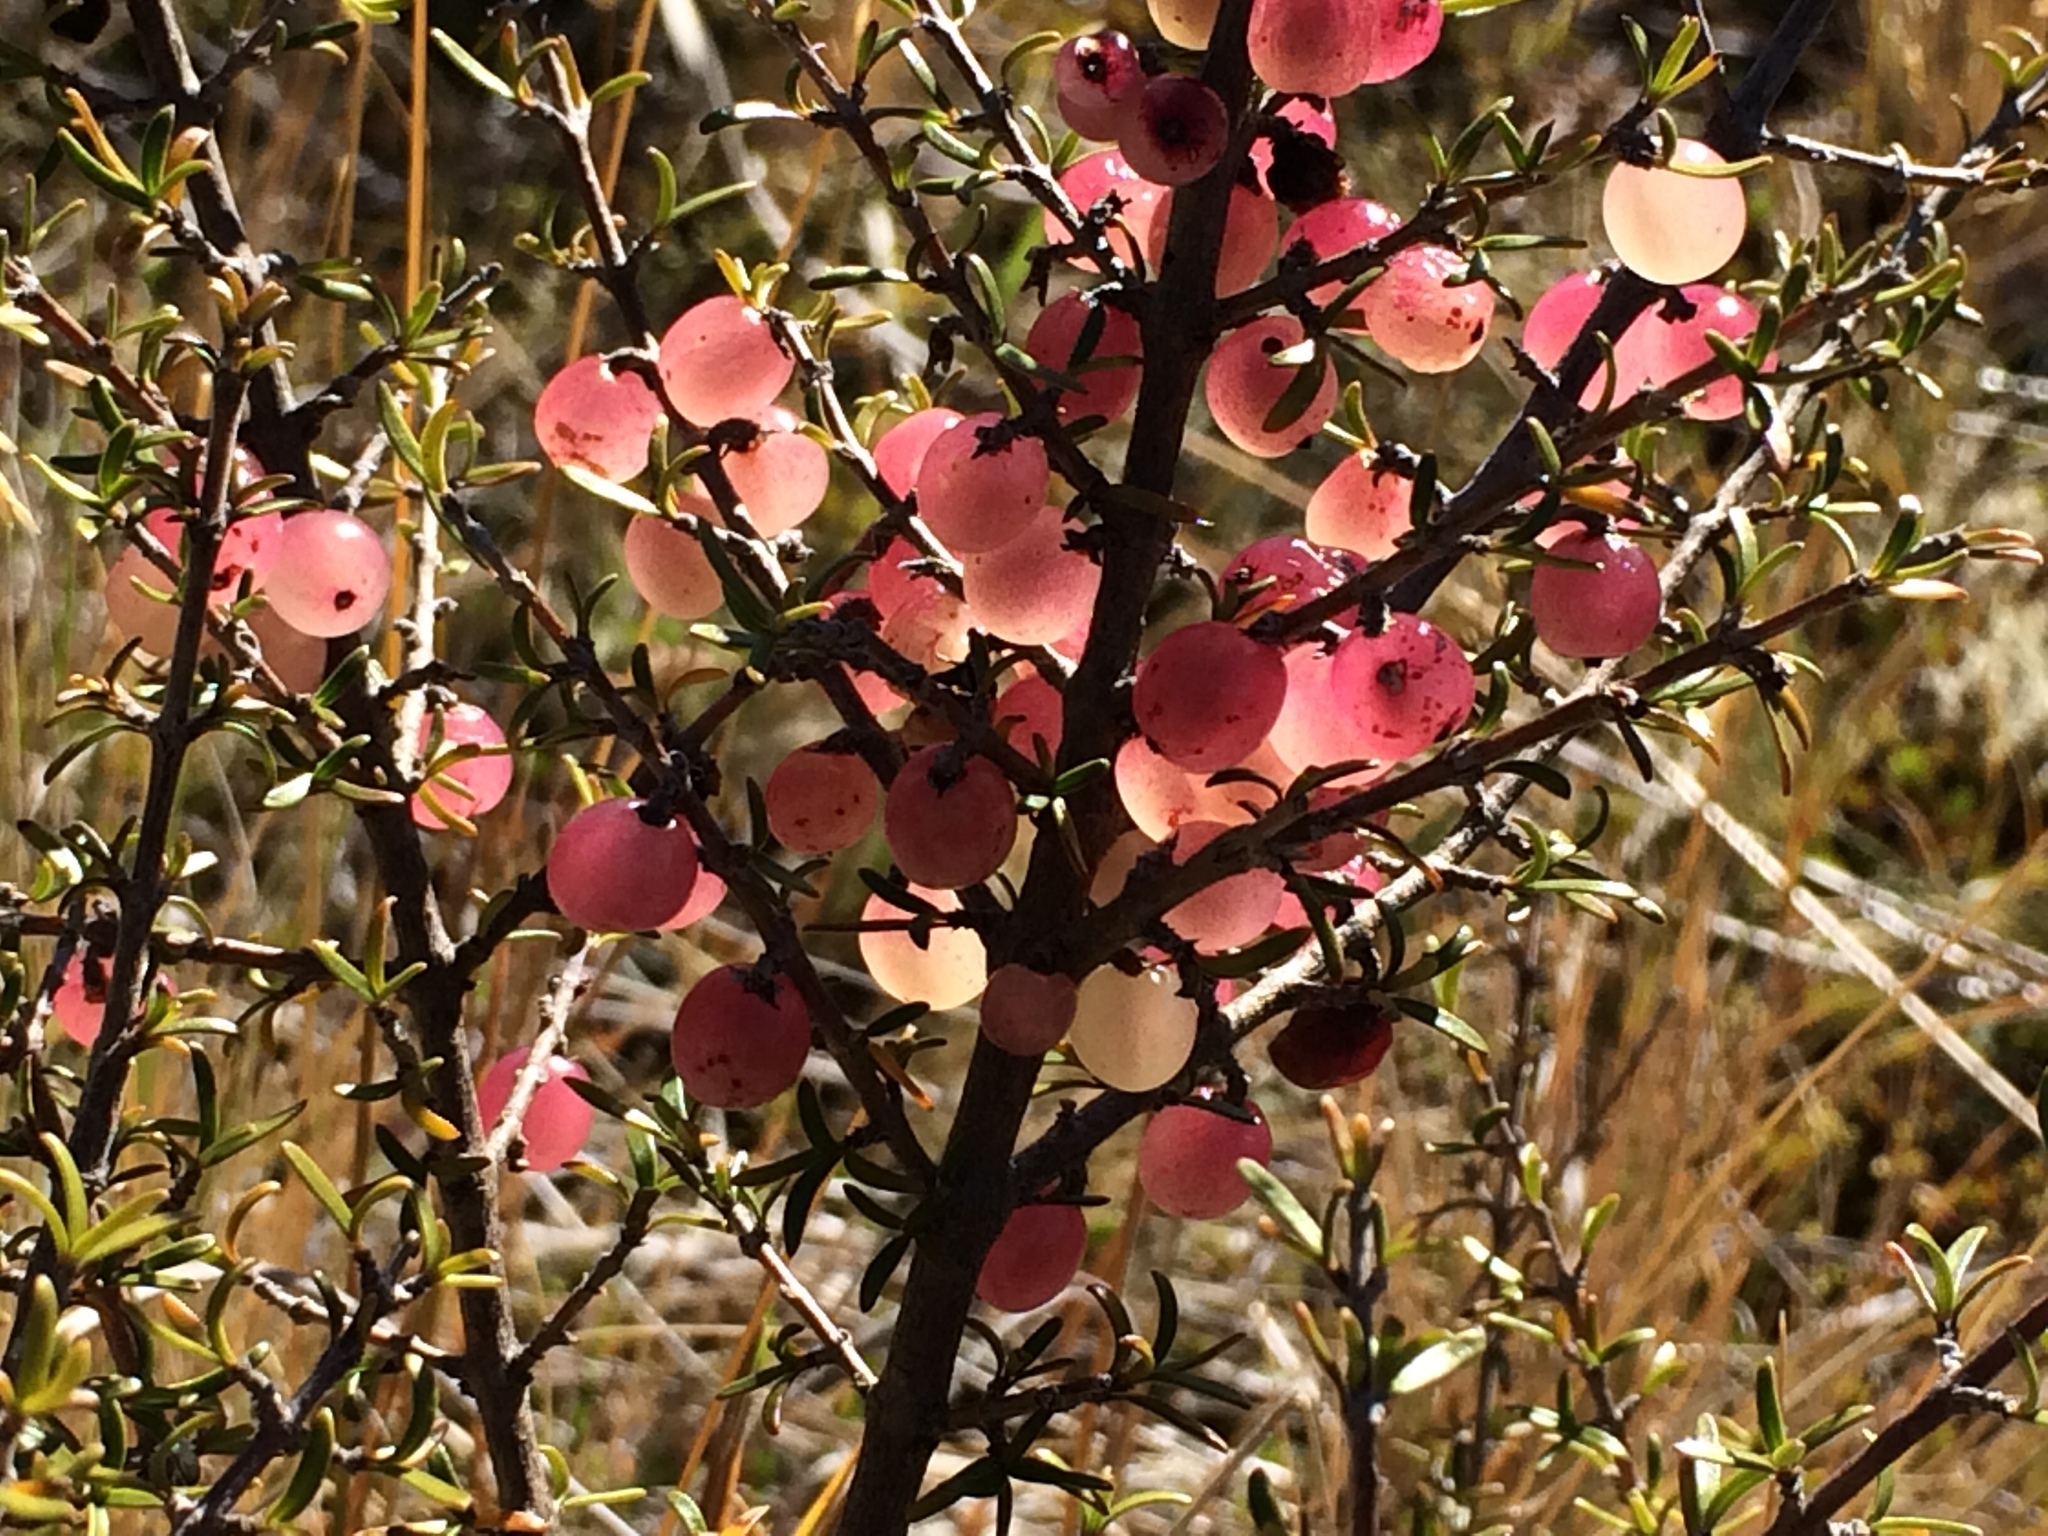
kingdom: Plantae
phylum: Tracheophyta
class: Magnoliopsida
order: Gentianales
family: Rubiaceae
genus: Coprosma
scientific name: Coprosma cheesemanii
